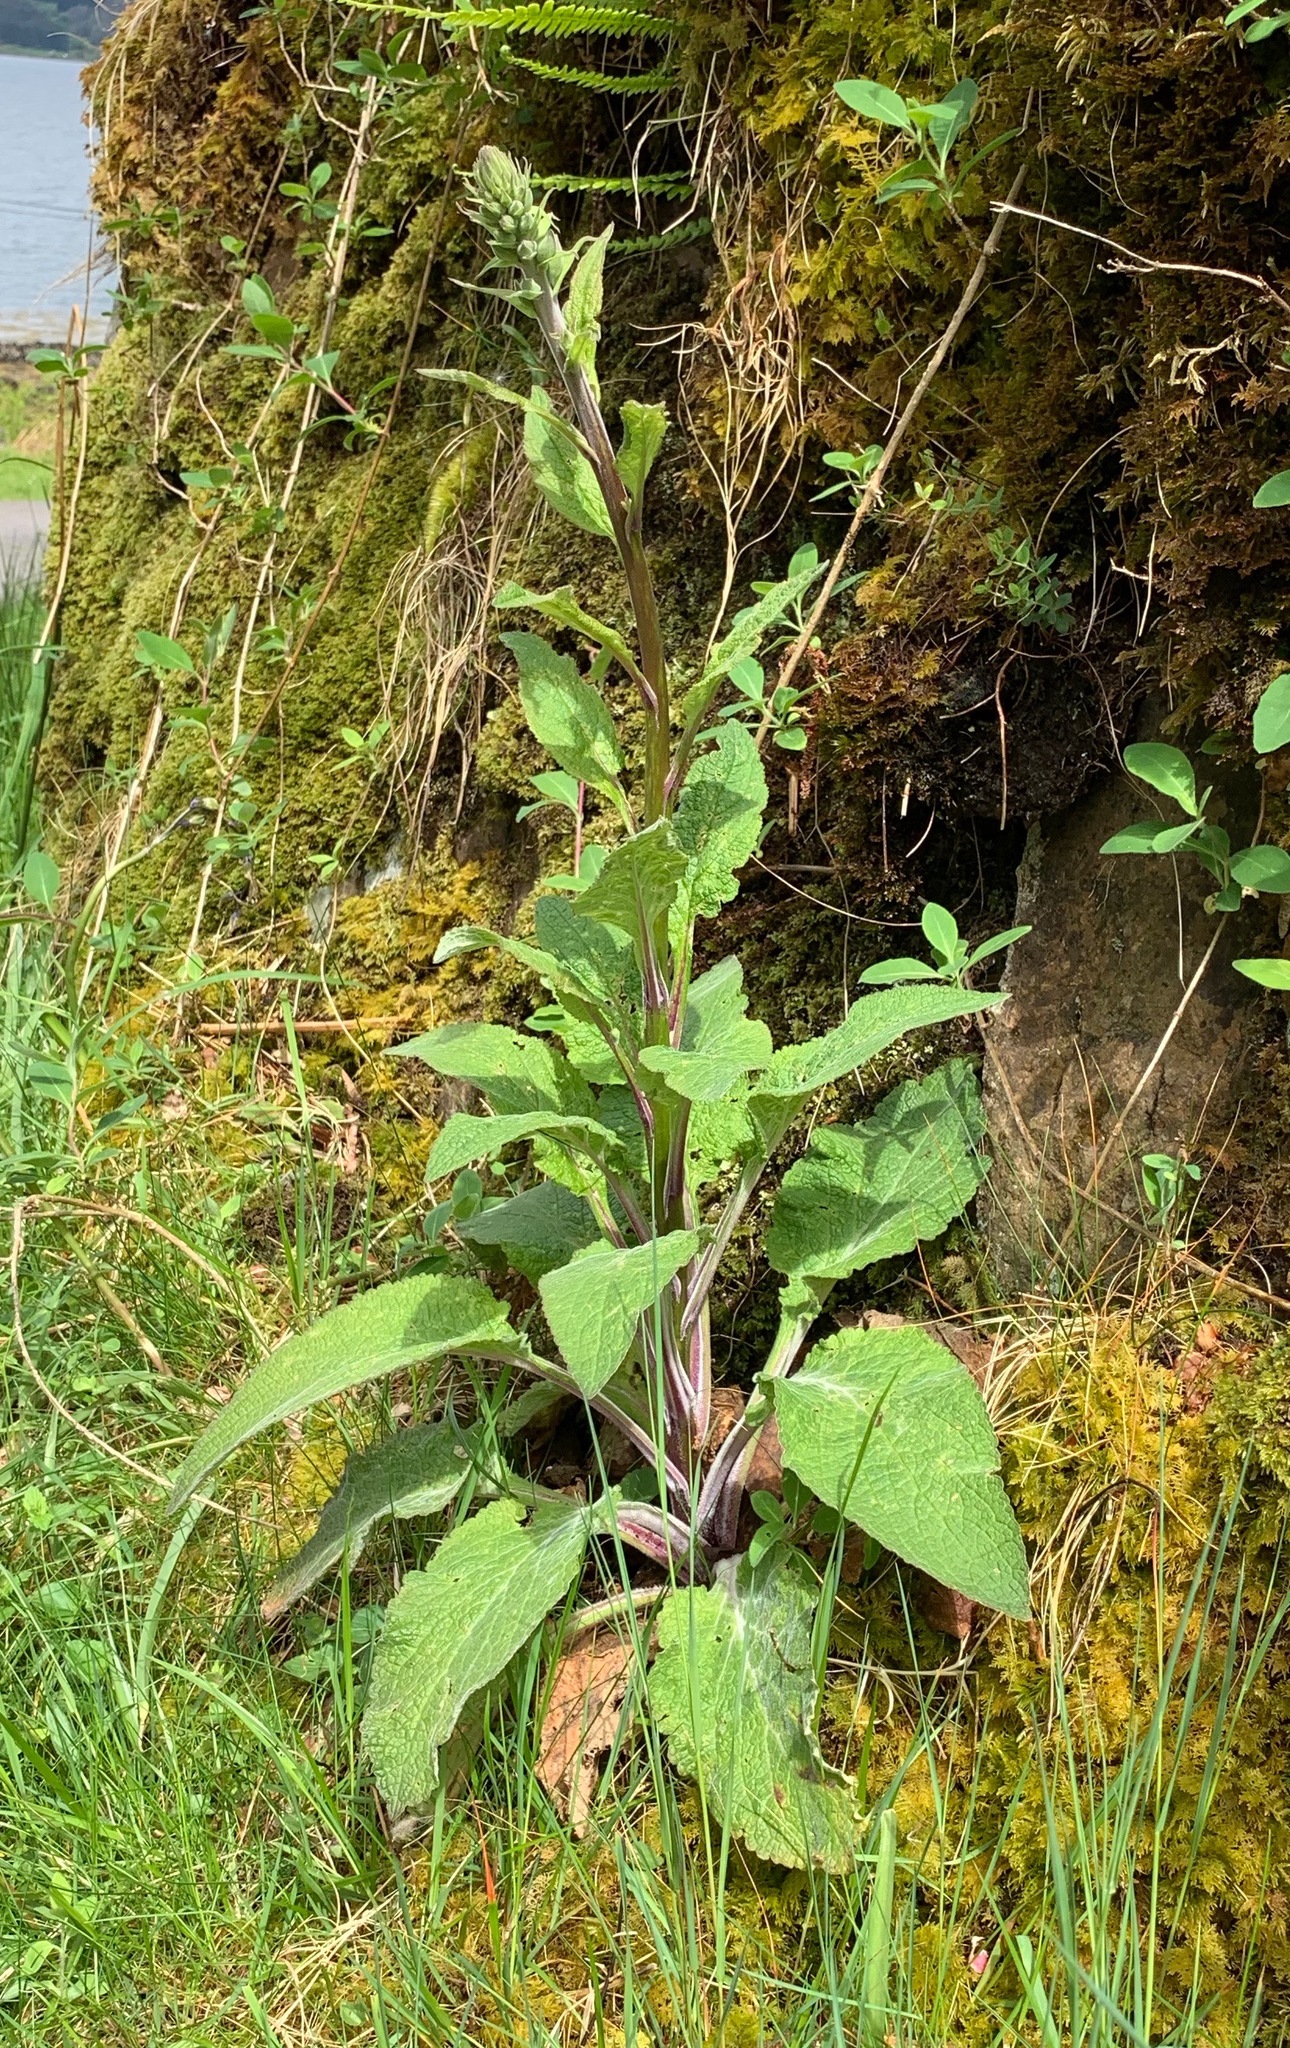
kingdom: Plantae
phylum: Tracheophyta
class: Magnoliopsida
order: Lamiales
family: Plantaginaceae
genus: Digitalis
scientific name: Digitalis purpurea
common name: Foxglove
